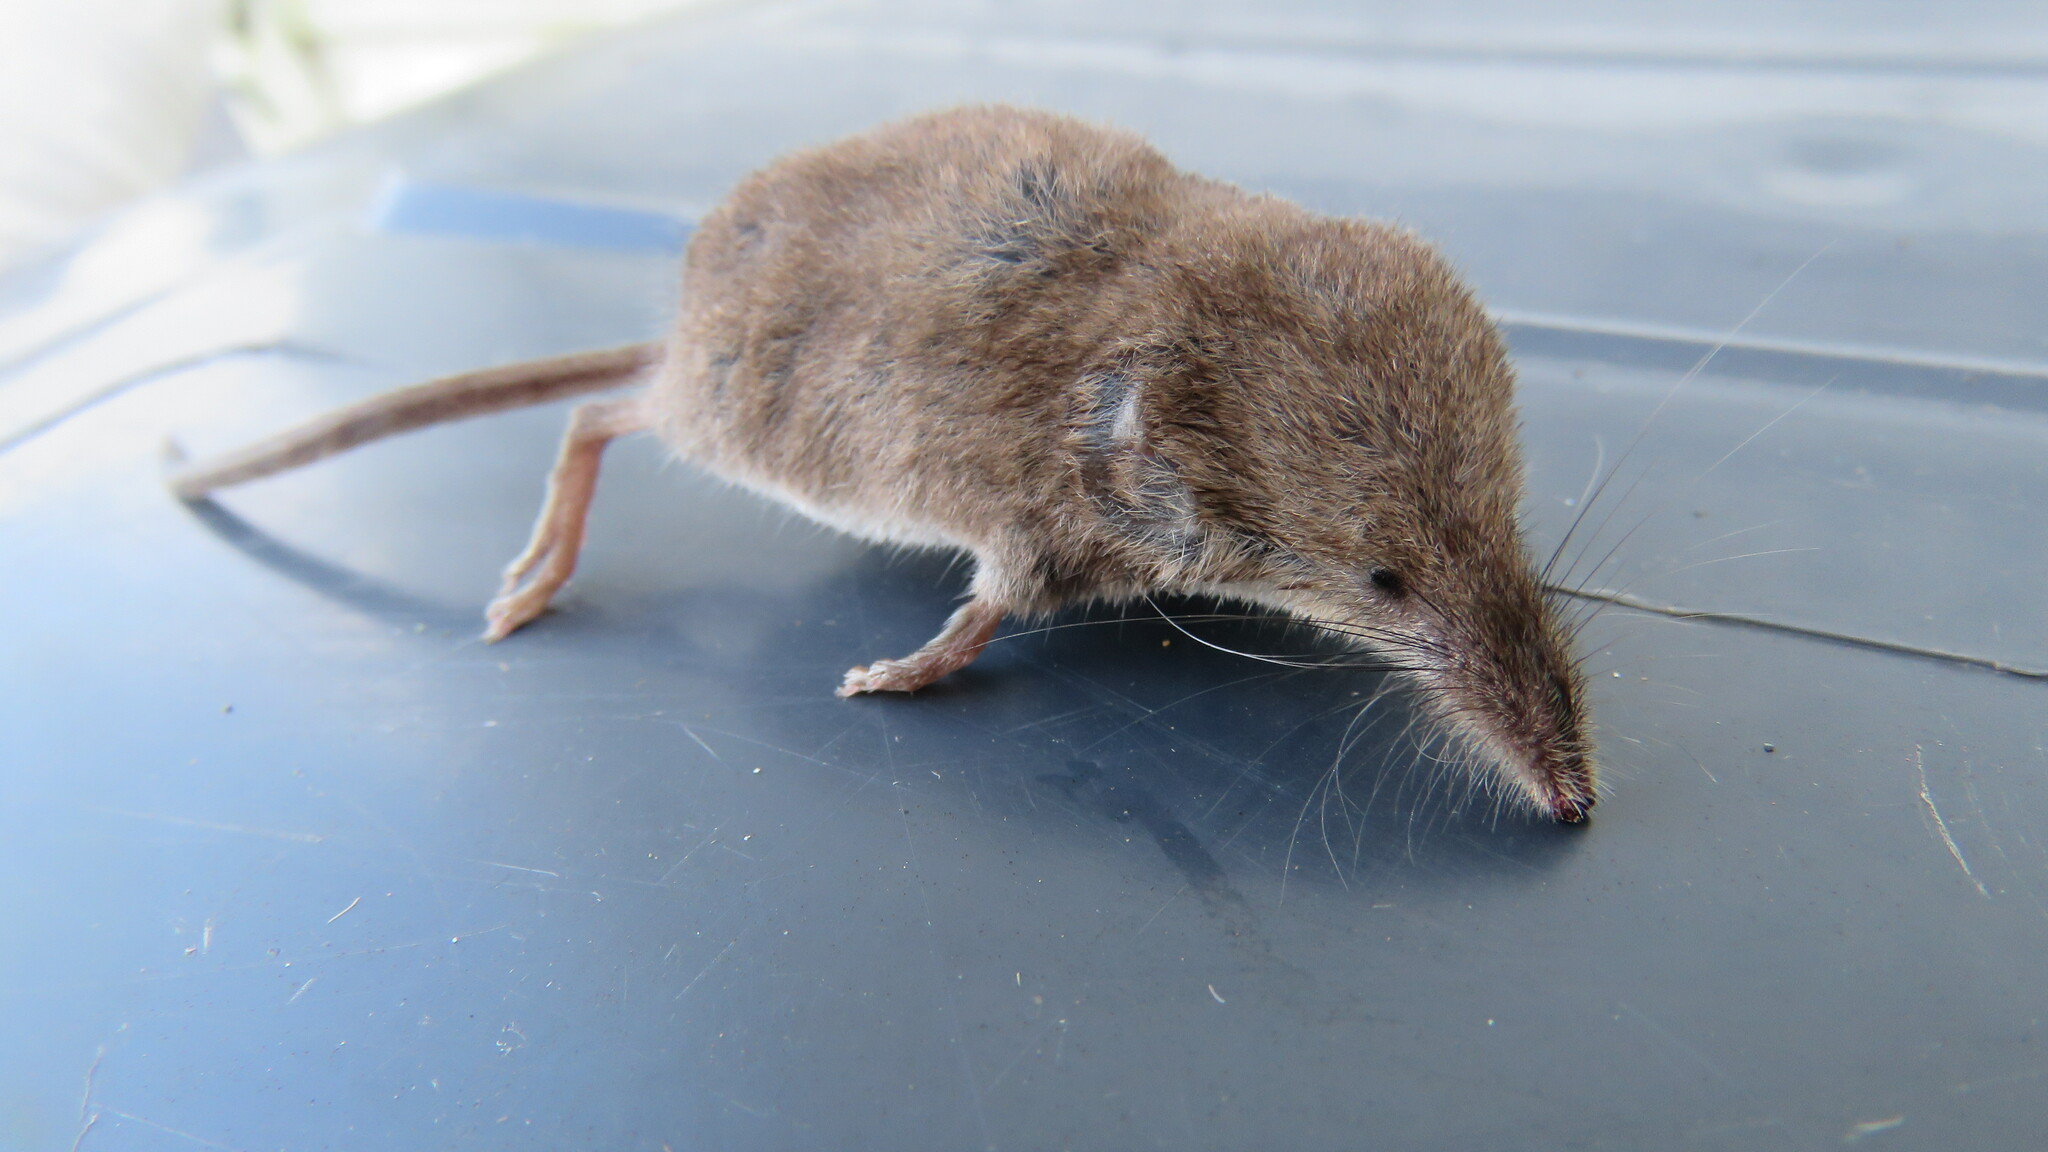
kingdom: Animalia
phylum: Chordata
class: Mammalia
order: Soricomorpha
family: Soricidae
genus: Sorex
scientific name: Sorex cinereus
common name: Cinereus shrew
